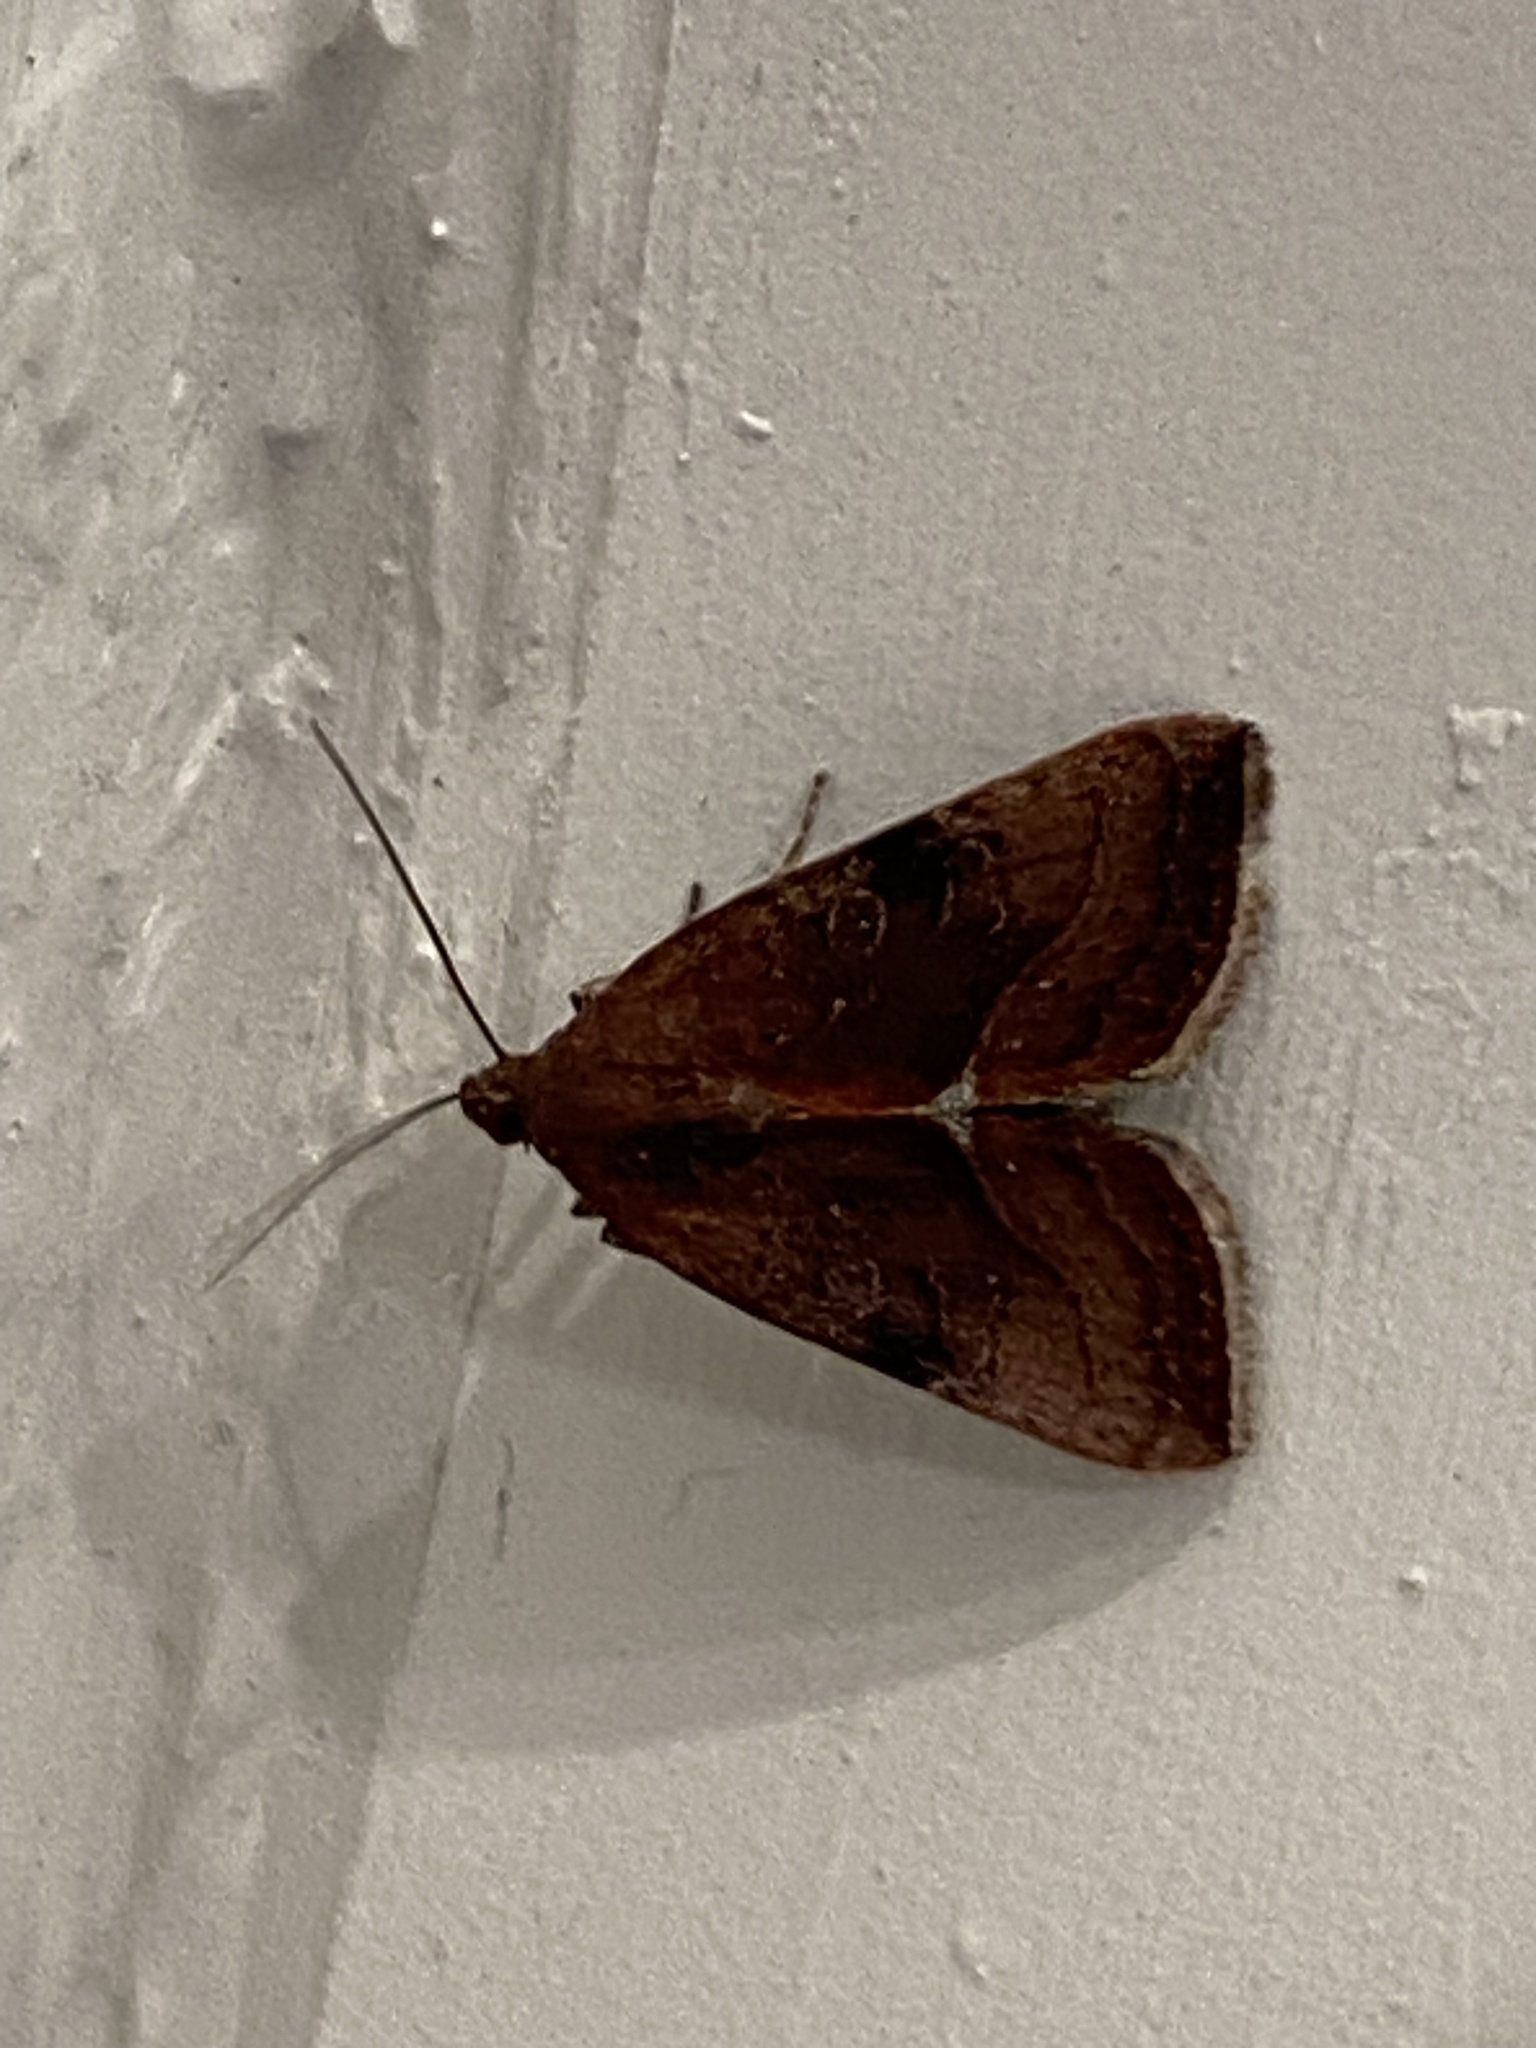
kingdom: Animalia
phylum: Arthropoda
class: Insecta
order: Lepidoptera
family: Noctuidae
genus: Galgula
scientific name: Galgula partita
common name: Wedgeling
